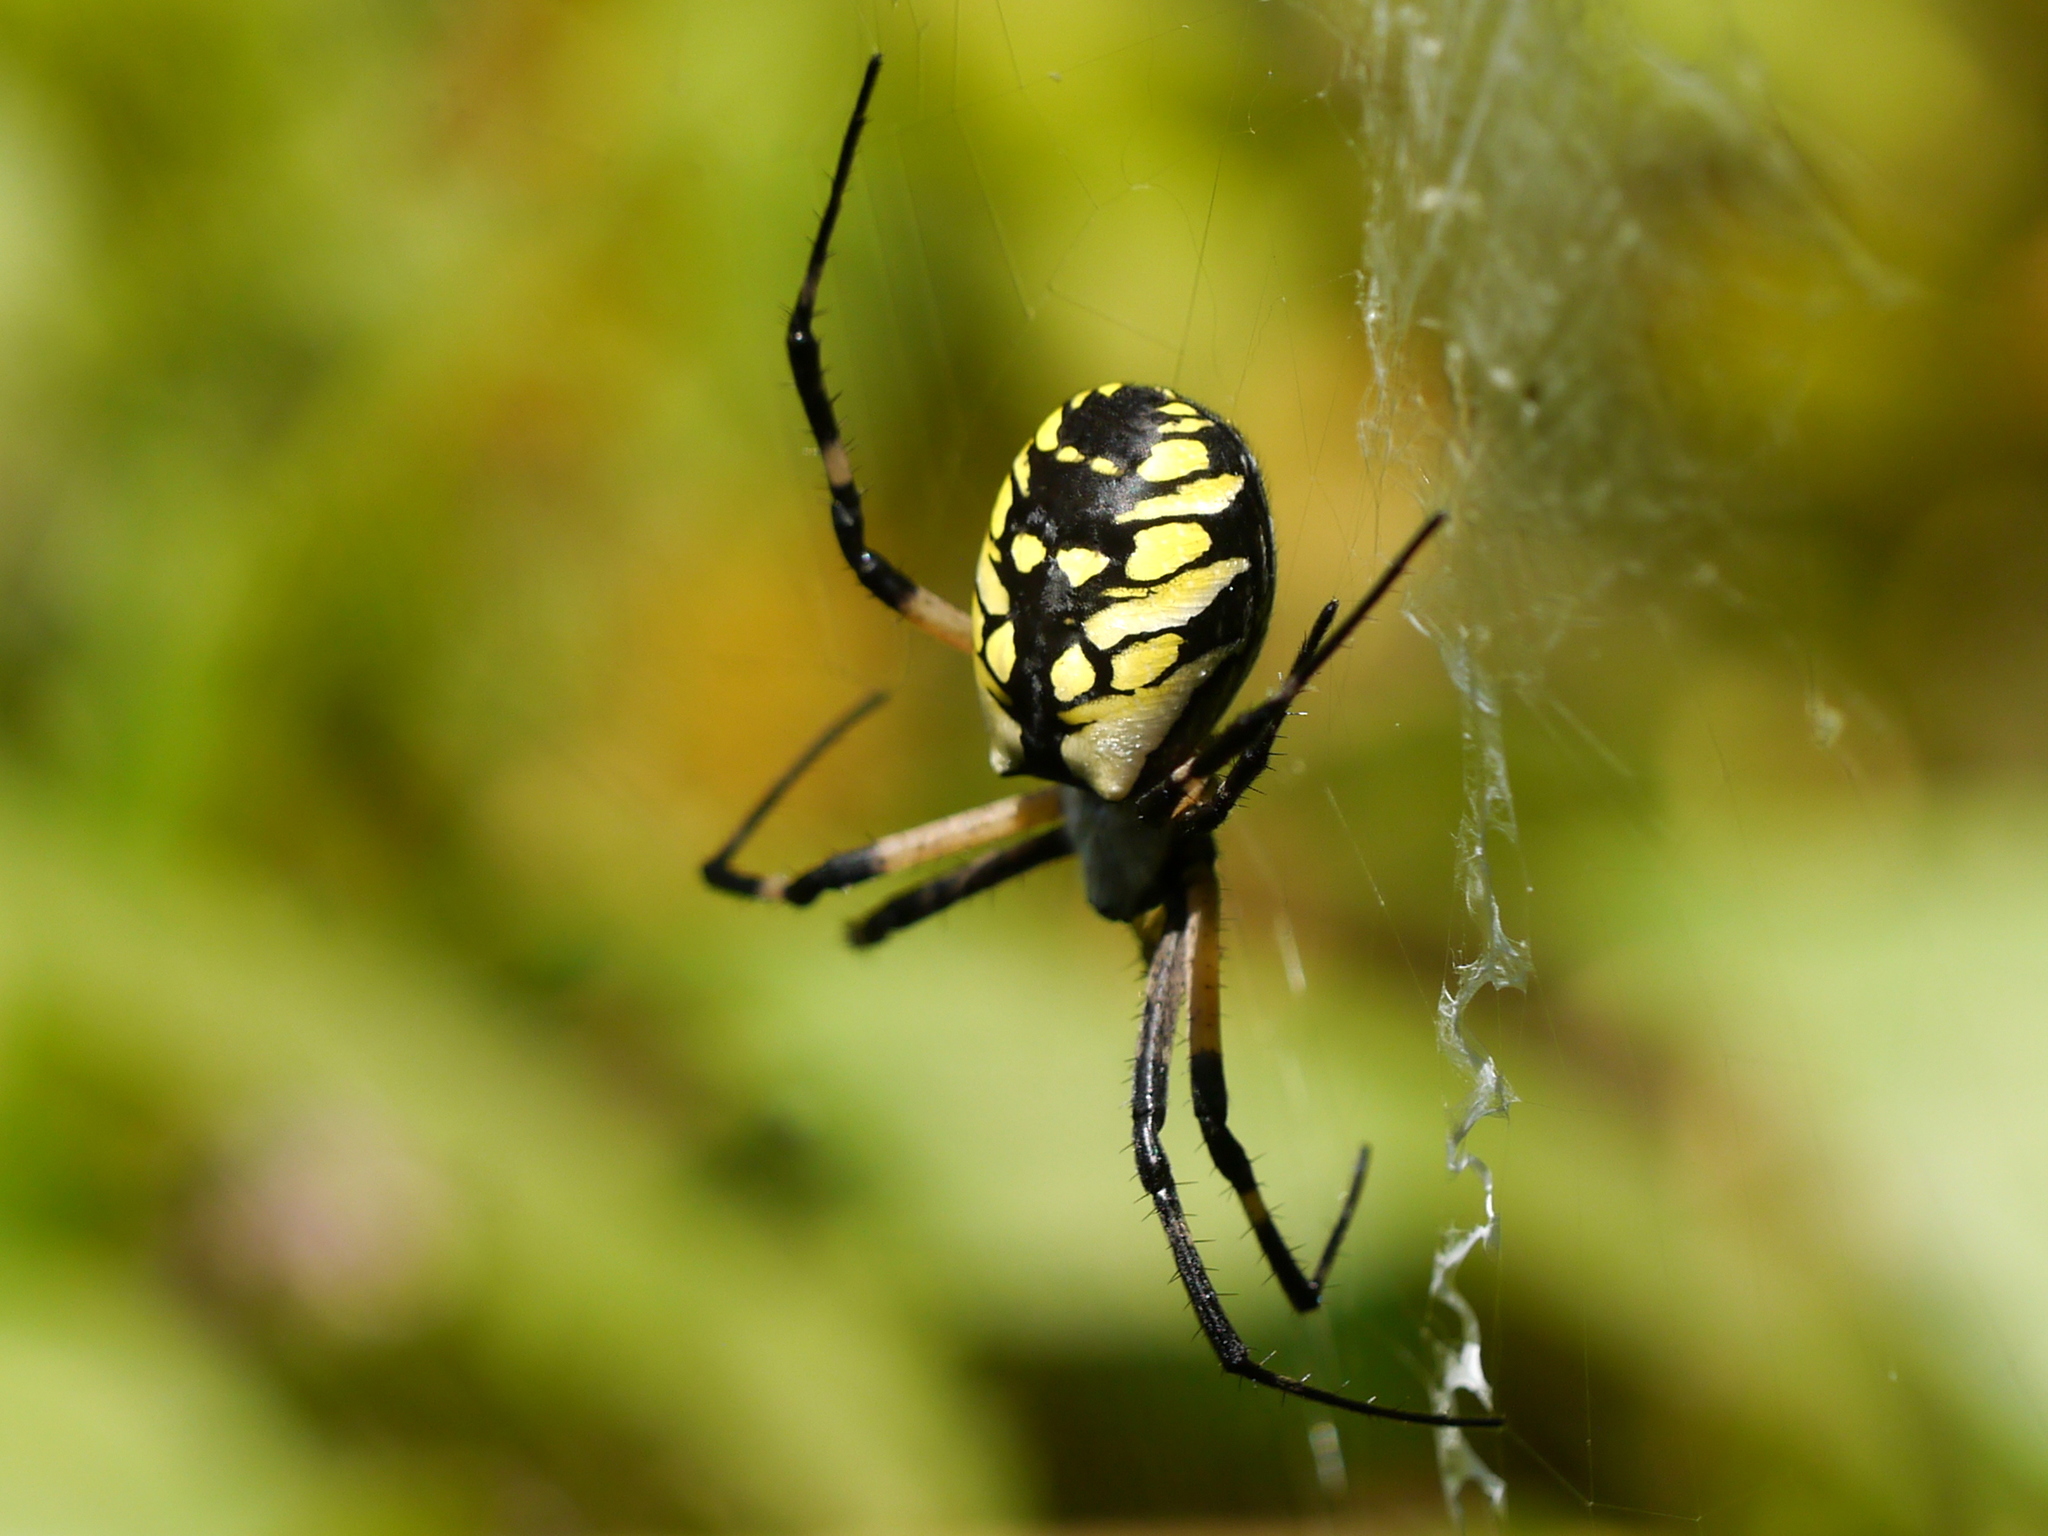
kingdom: Animalia
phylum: Arthropoda
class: Arachnida
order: Araneae
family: Araneidae
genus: Argiope
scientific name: Argiope aurantia
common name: Orb weavers
